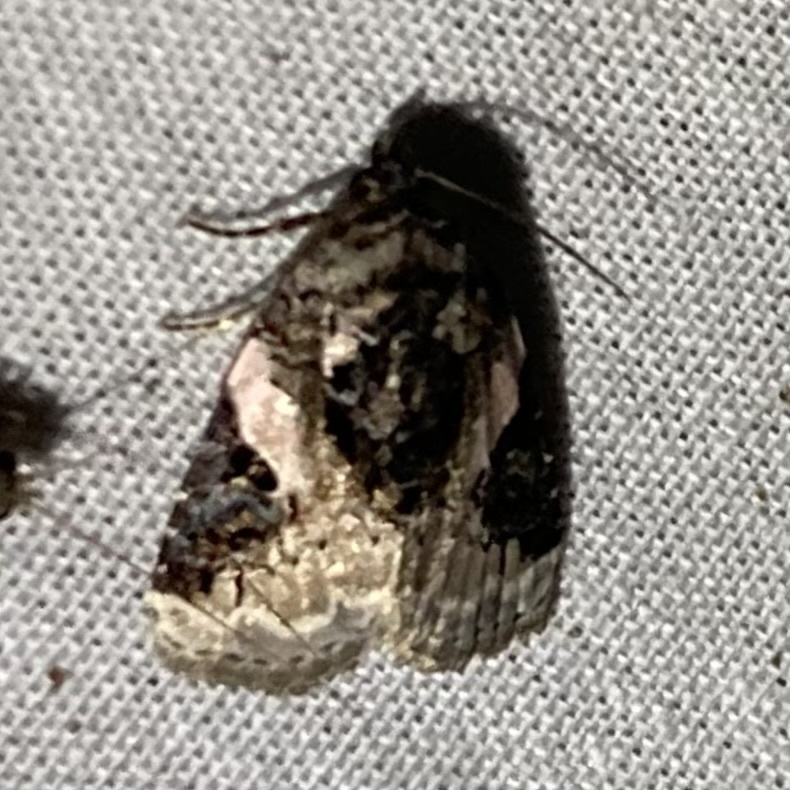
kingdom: Animalia
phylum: Arthropoda
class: Insecta
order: Lepidoptera
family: Noctuidae
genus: Pseudeustrotia
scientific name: Pseudeustrotia carneola
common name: Pink-barred lithacodia moth
